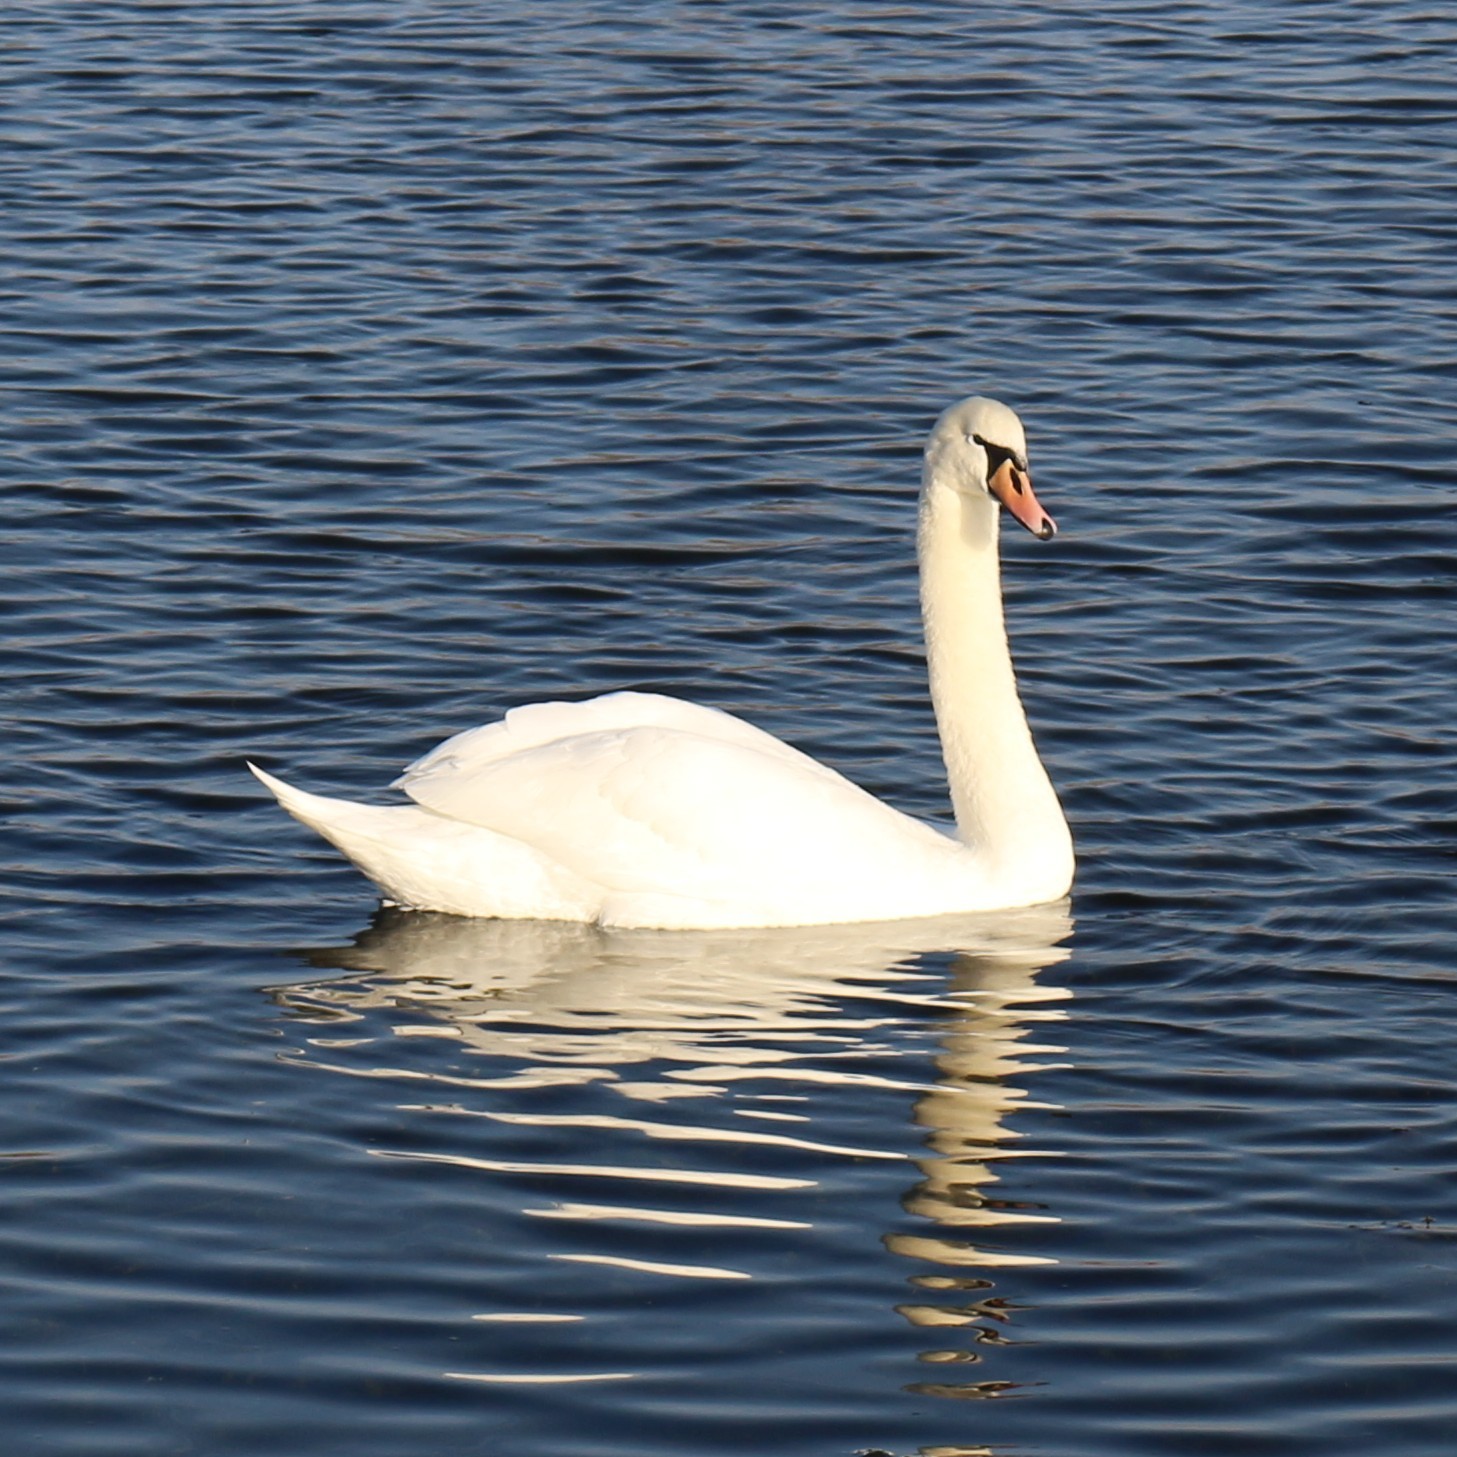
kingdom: Animalia
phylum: Chordata
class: Aves
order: Anseriformes
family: Anatidae
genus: Cygnus
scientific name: Cygnus olor
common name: Mute swan
